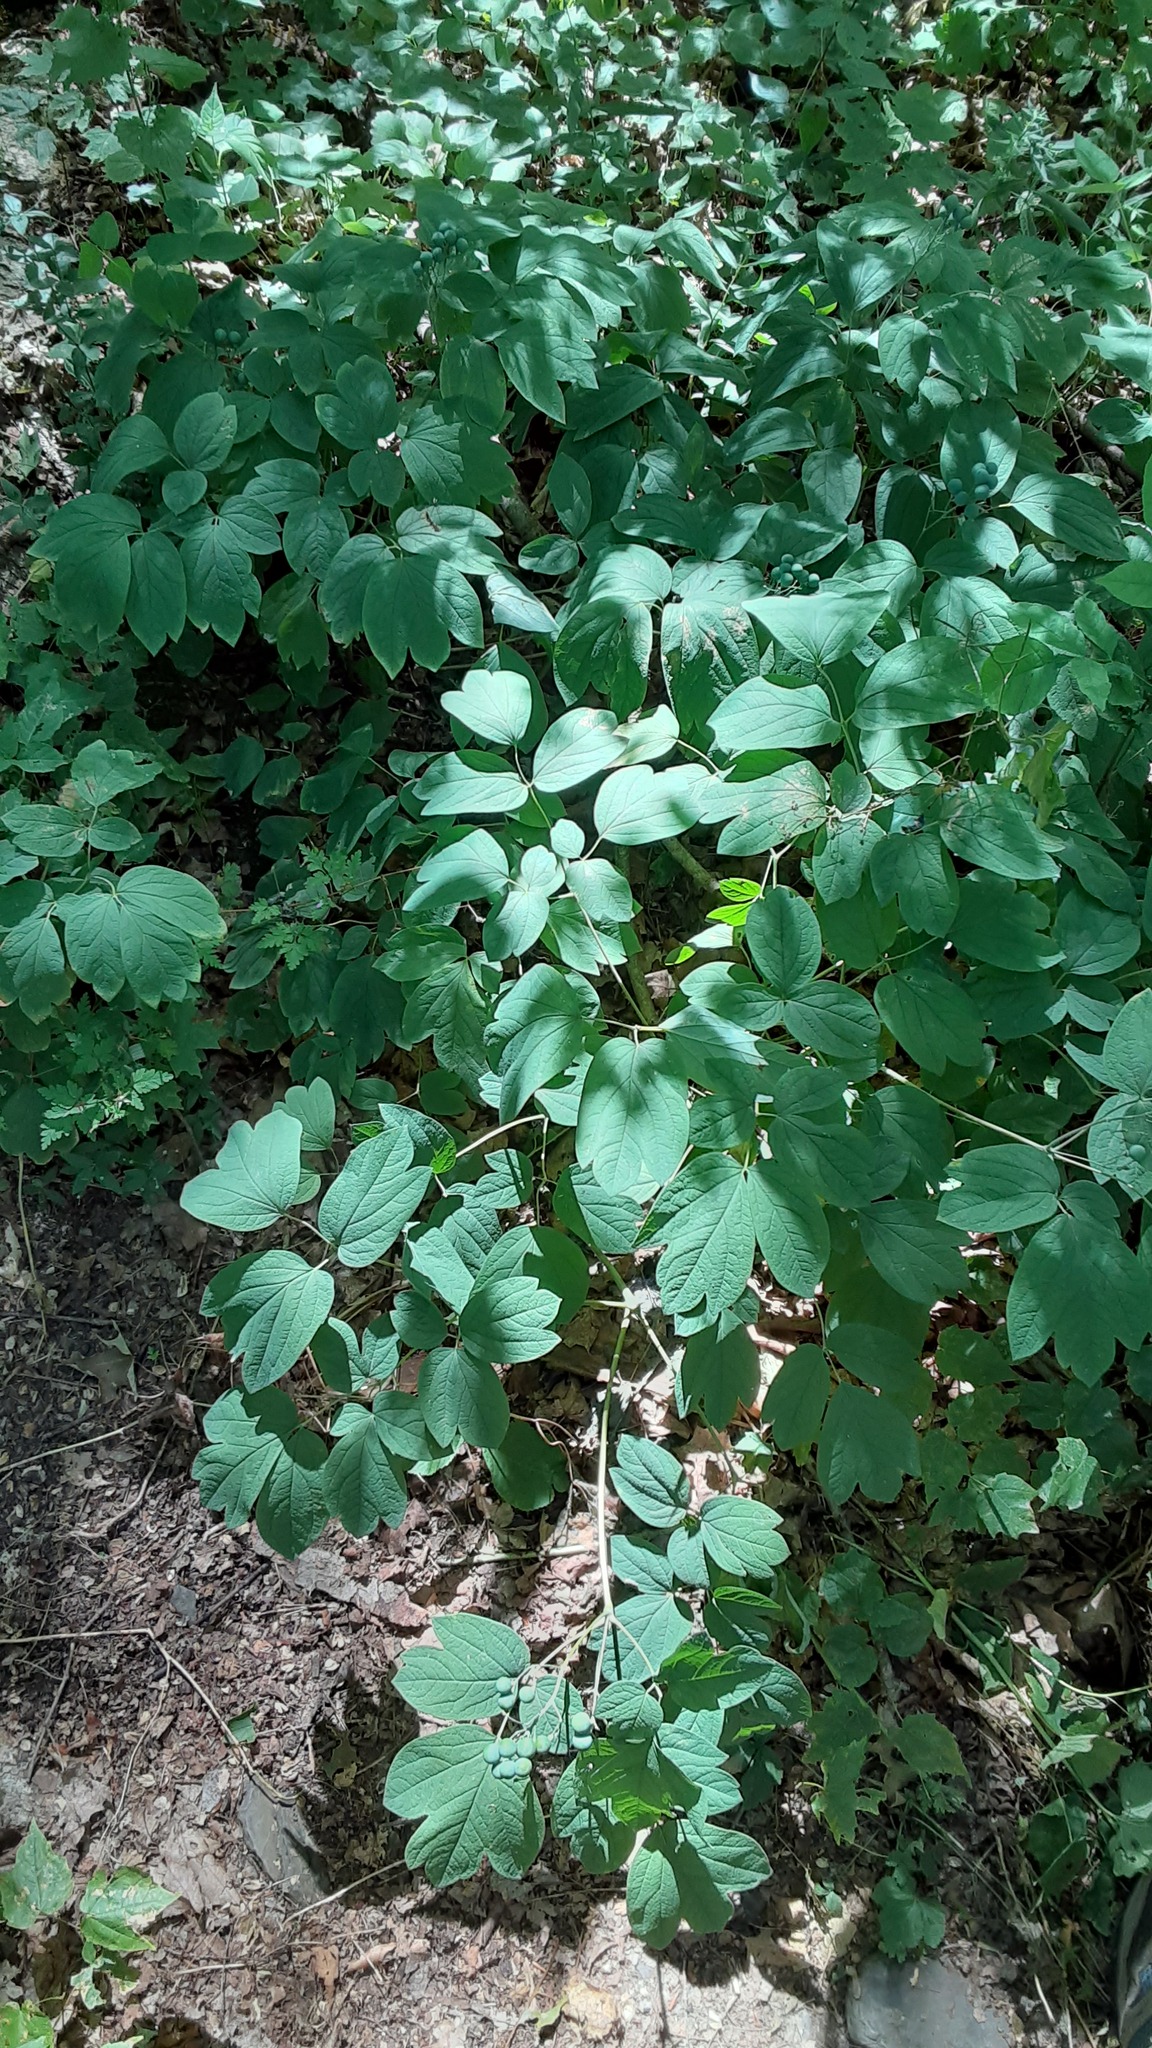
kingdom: Plantae
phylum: Tracheophyta
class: Magnoliopsida
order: Ranunculales
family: Berberidaceae
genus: Caulophyllum
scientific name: Caulophyllum thalictroides
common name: Blue cohosh
